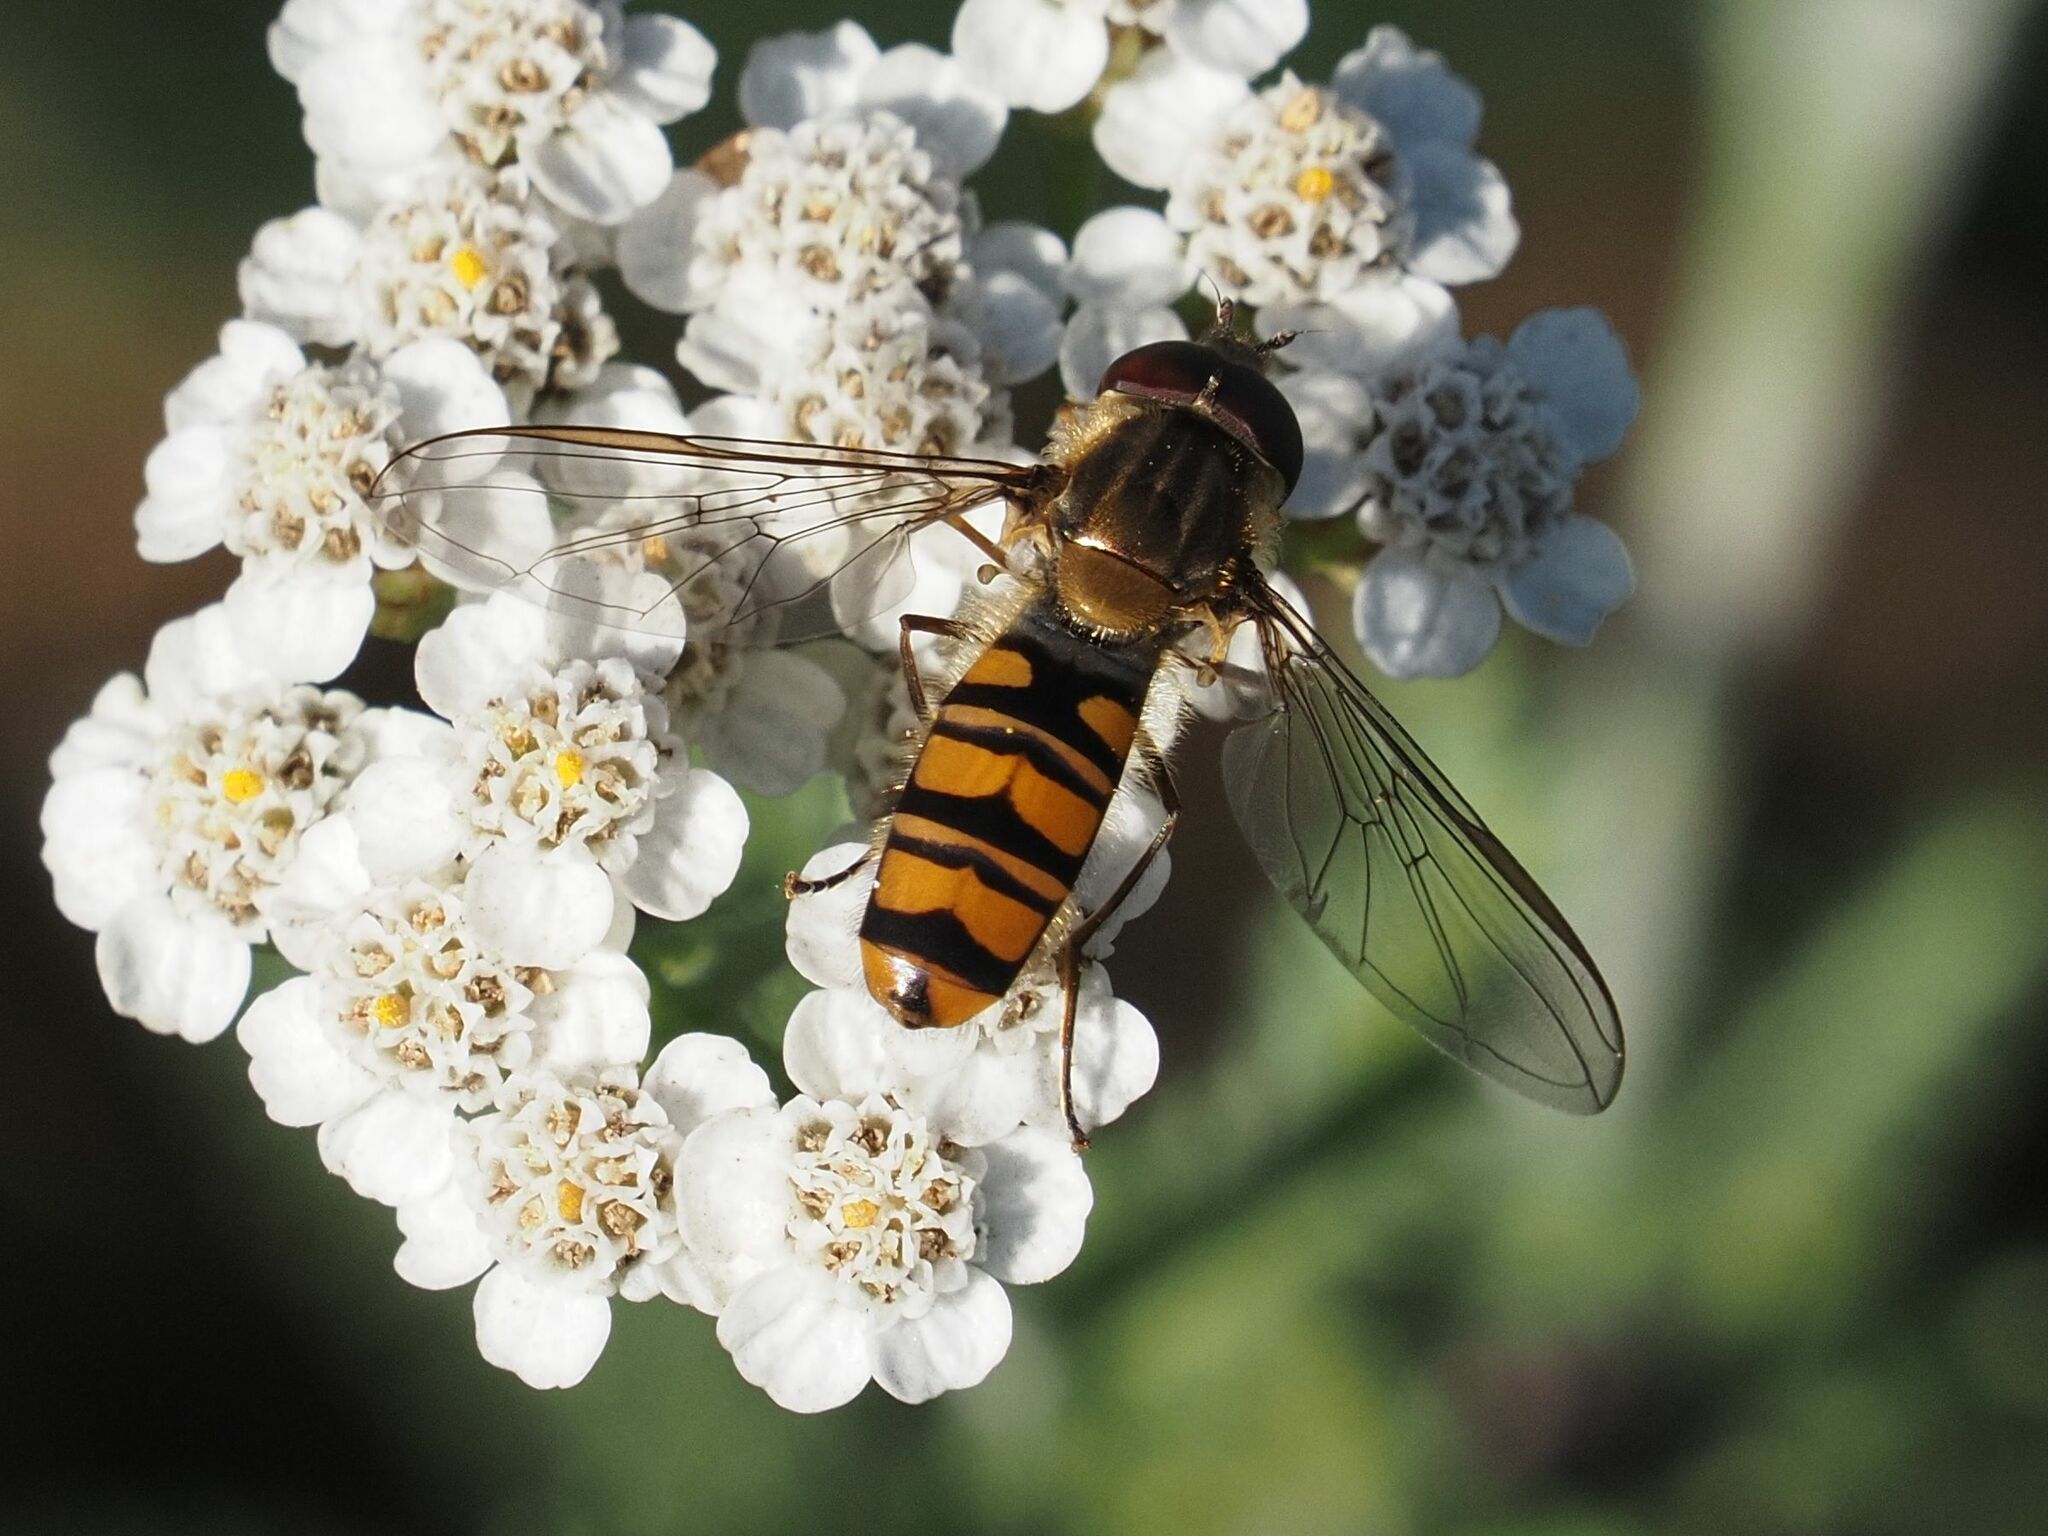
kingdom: Animalia
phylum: Arthropoda
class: Insecta
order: Diptera
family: Syrphidae
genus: Episyrphus
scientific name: Episyrphus balteatus
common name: Marmalade hoverfly
